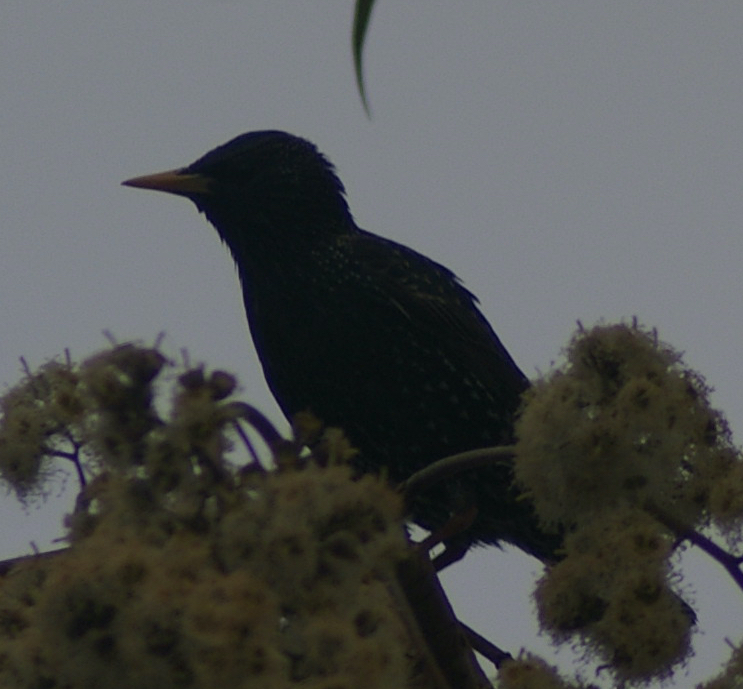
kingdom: Animalia
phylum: Chordata
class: Aves
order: Passeriformes
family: Sturnidae
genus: Sturnus
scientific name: Sturnus vulgaris
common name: Common starling
